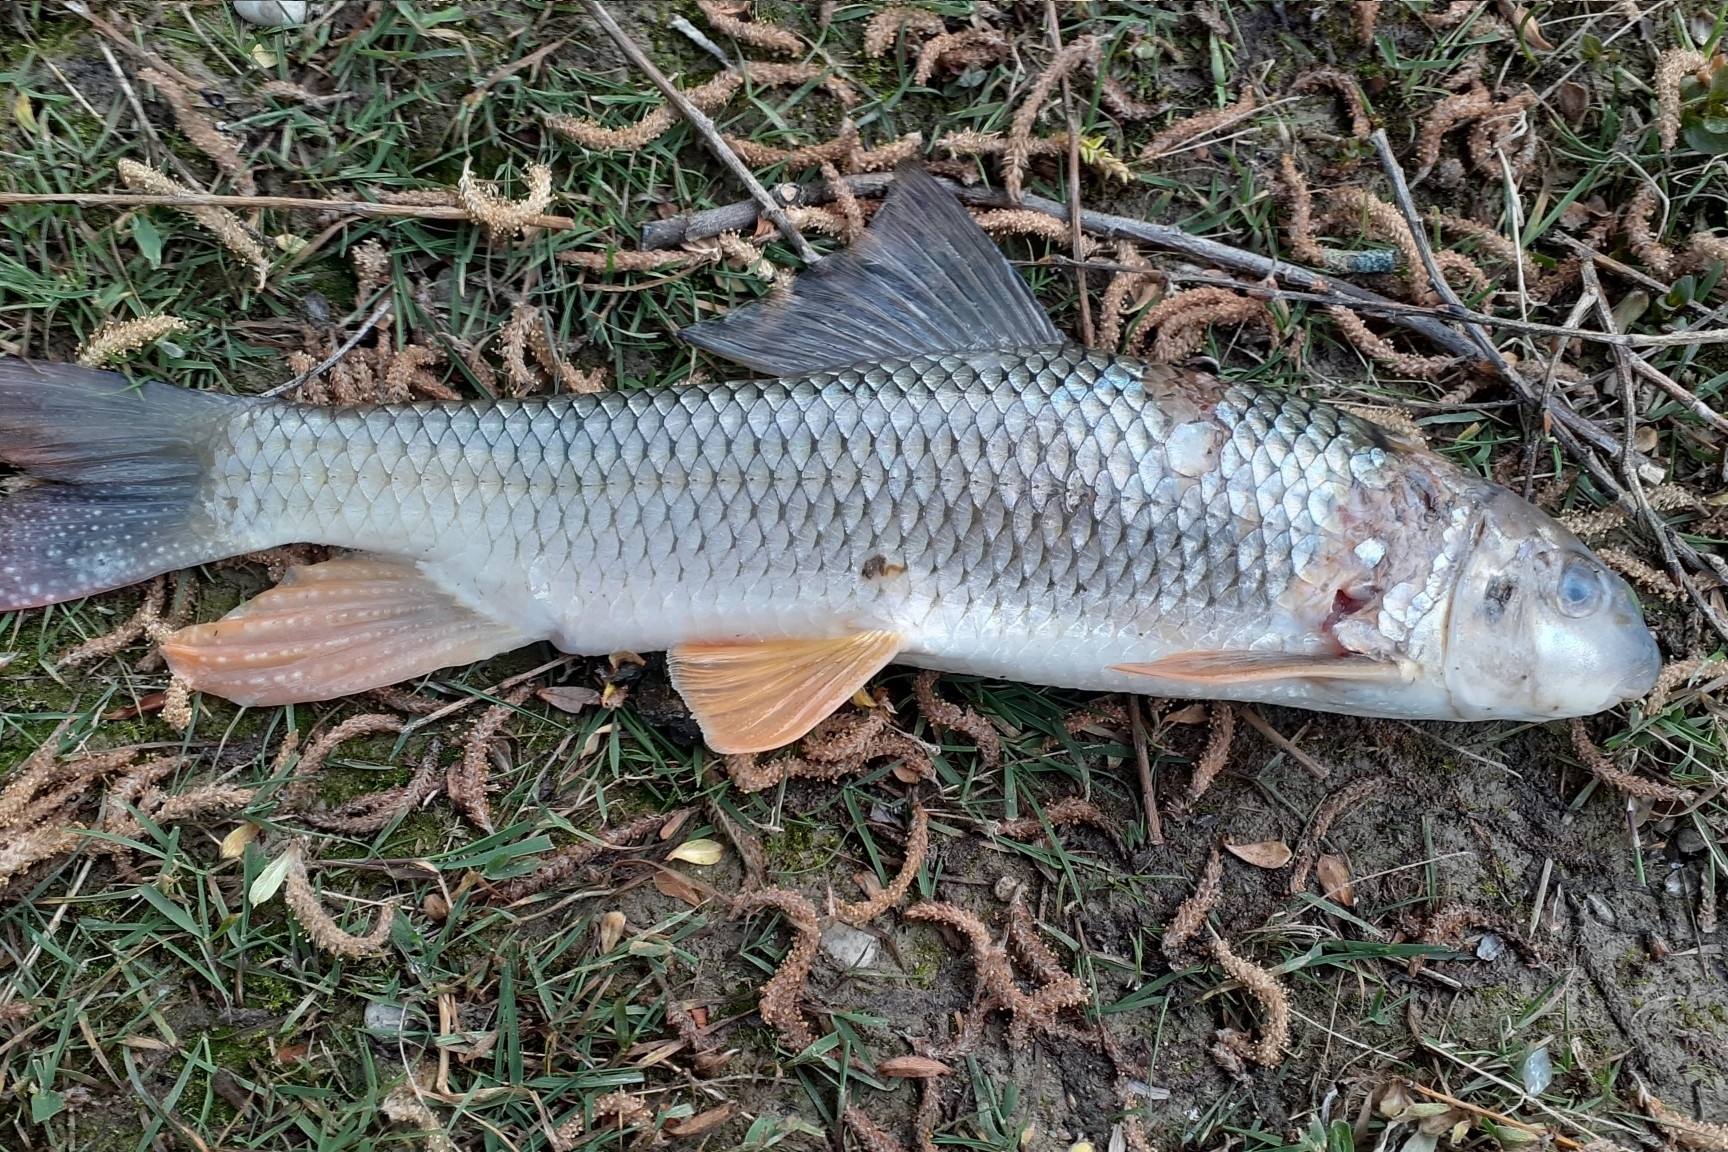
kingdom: Animalia
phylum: Chordata
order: Cypriniformes
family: Catostomidae
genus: Moxostoma
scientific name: Moxostoma macrolepidotum
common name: Shorthead redhorse
